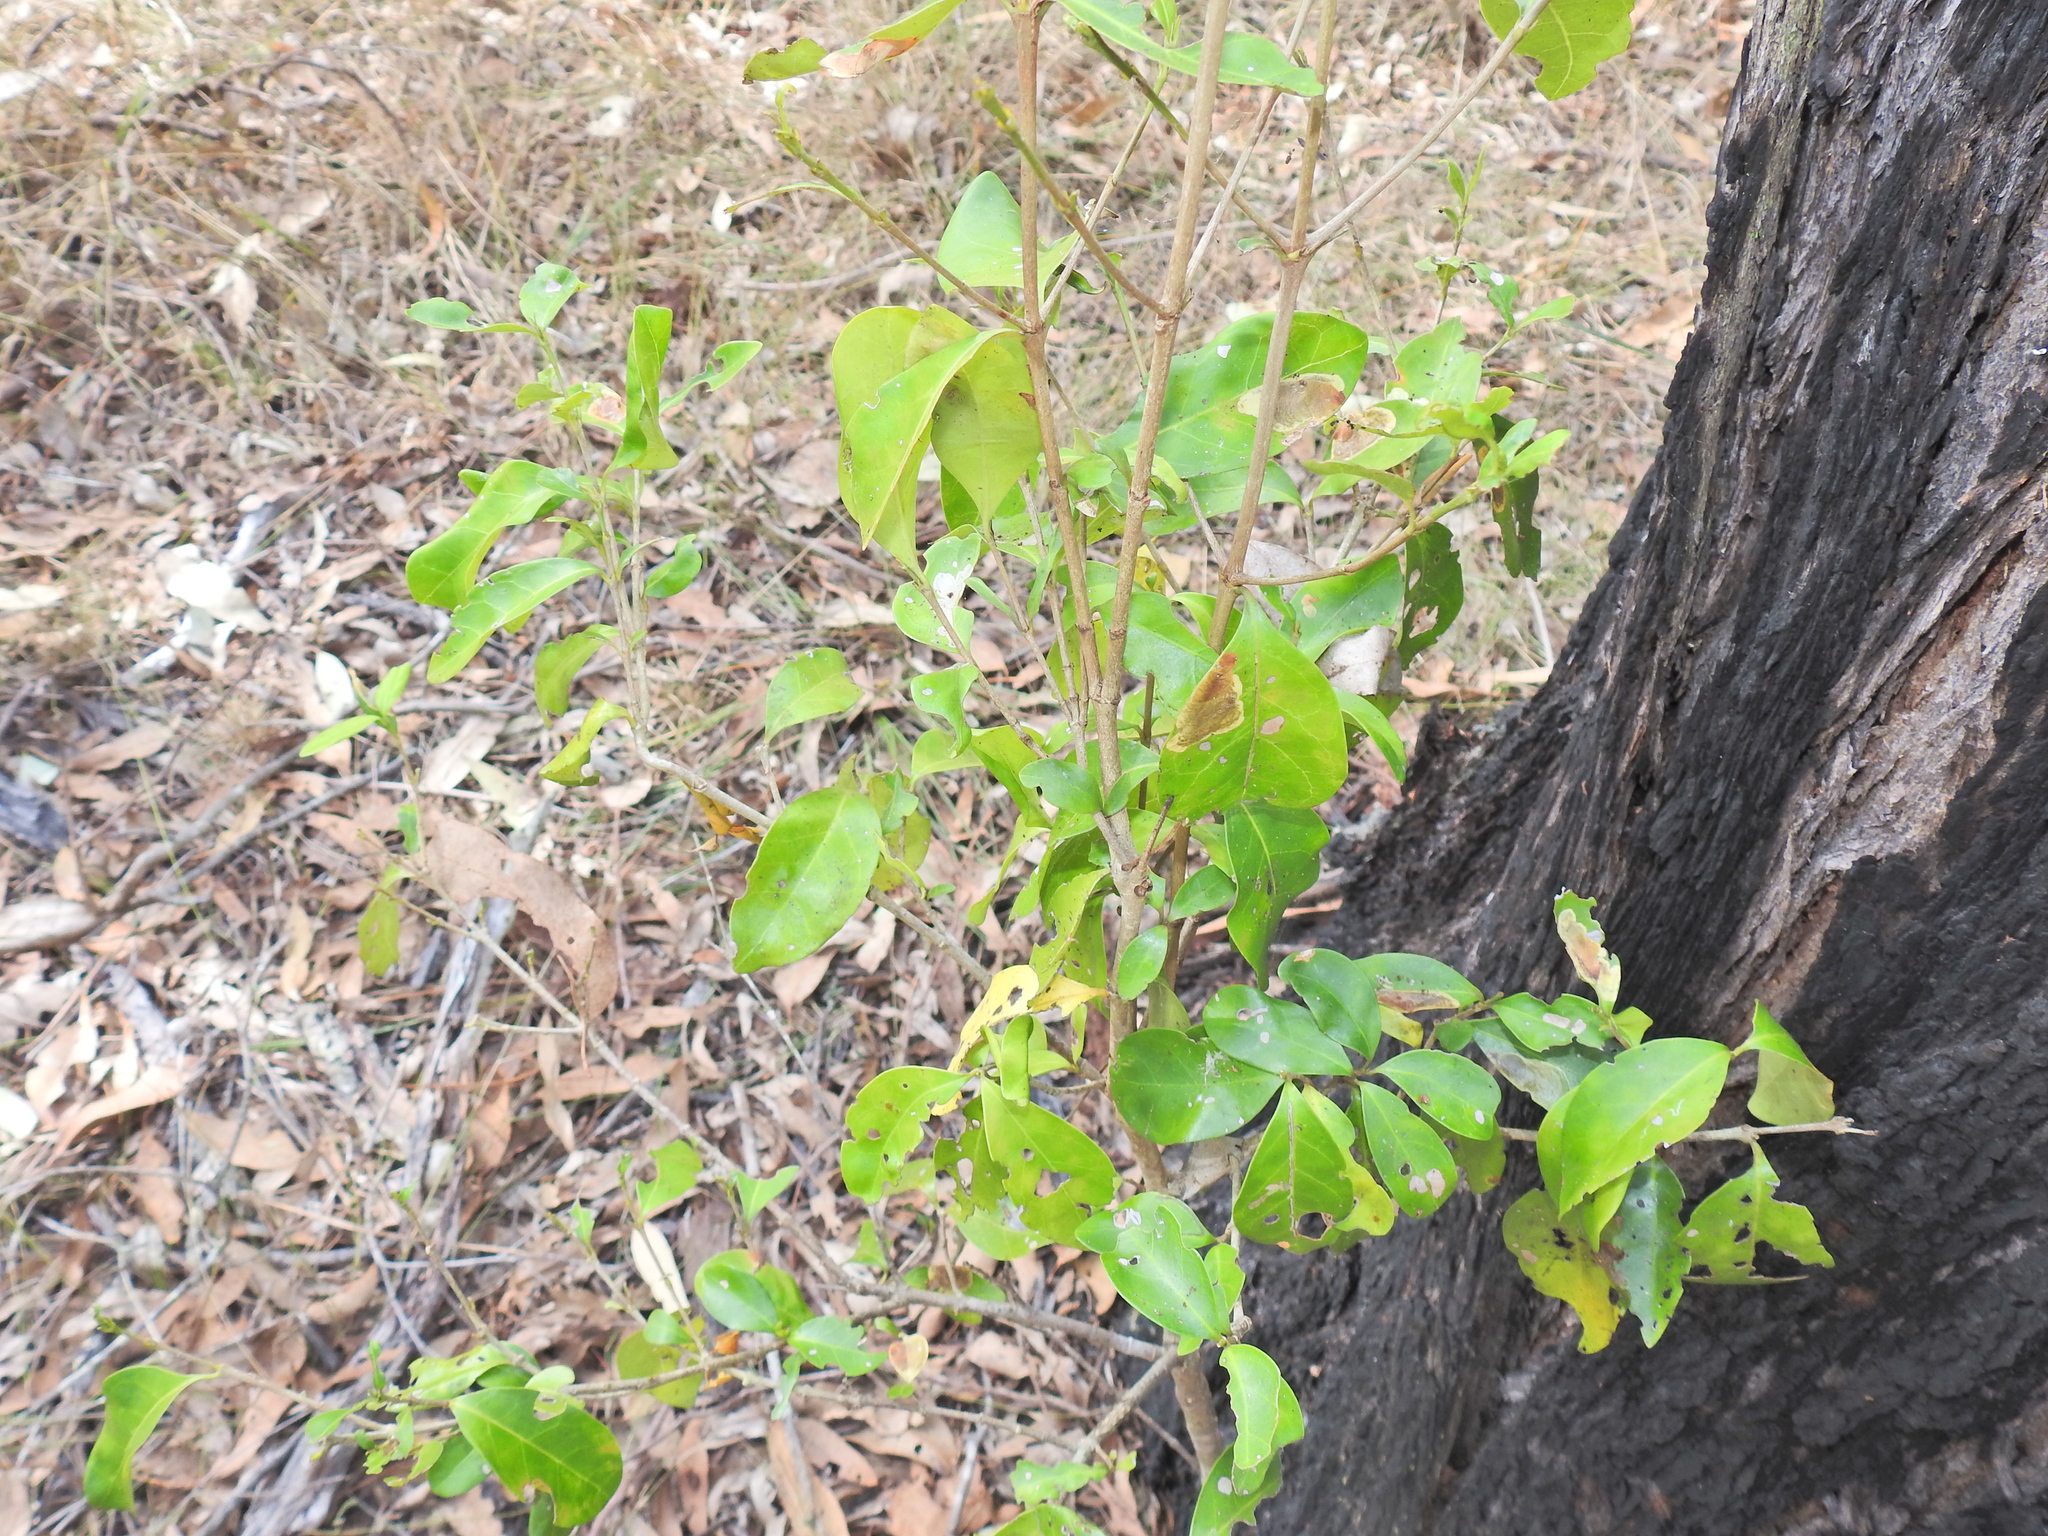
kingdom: Plantae
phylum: Tracheophyta
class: Magnoliopsida
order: Gentianales
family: Rubiaceae
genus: Cyclophyllum
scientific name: Cyclophyllum coprosmoides
